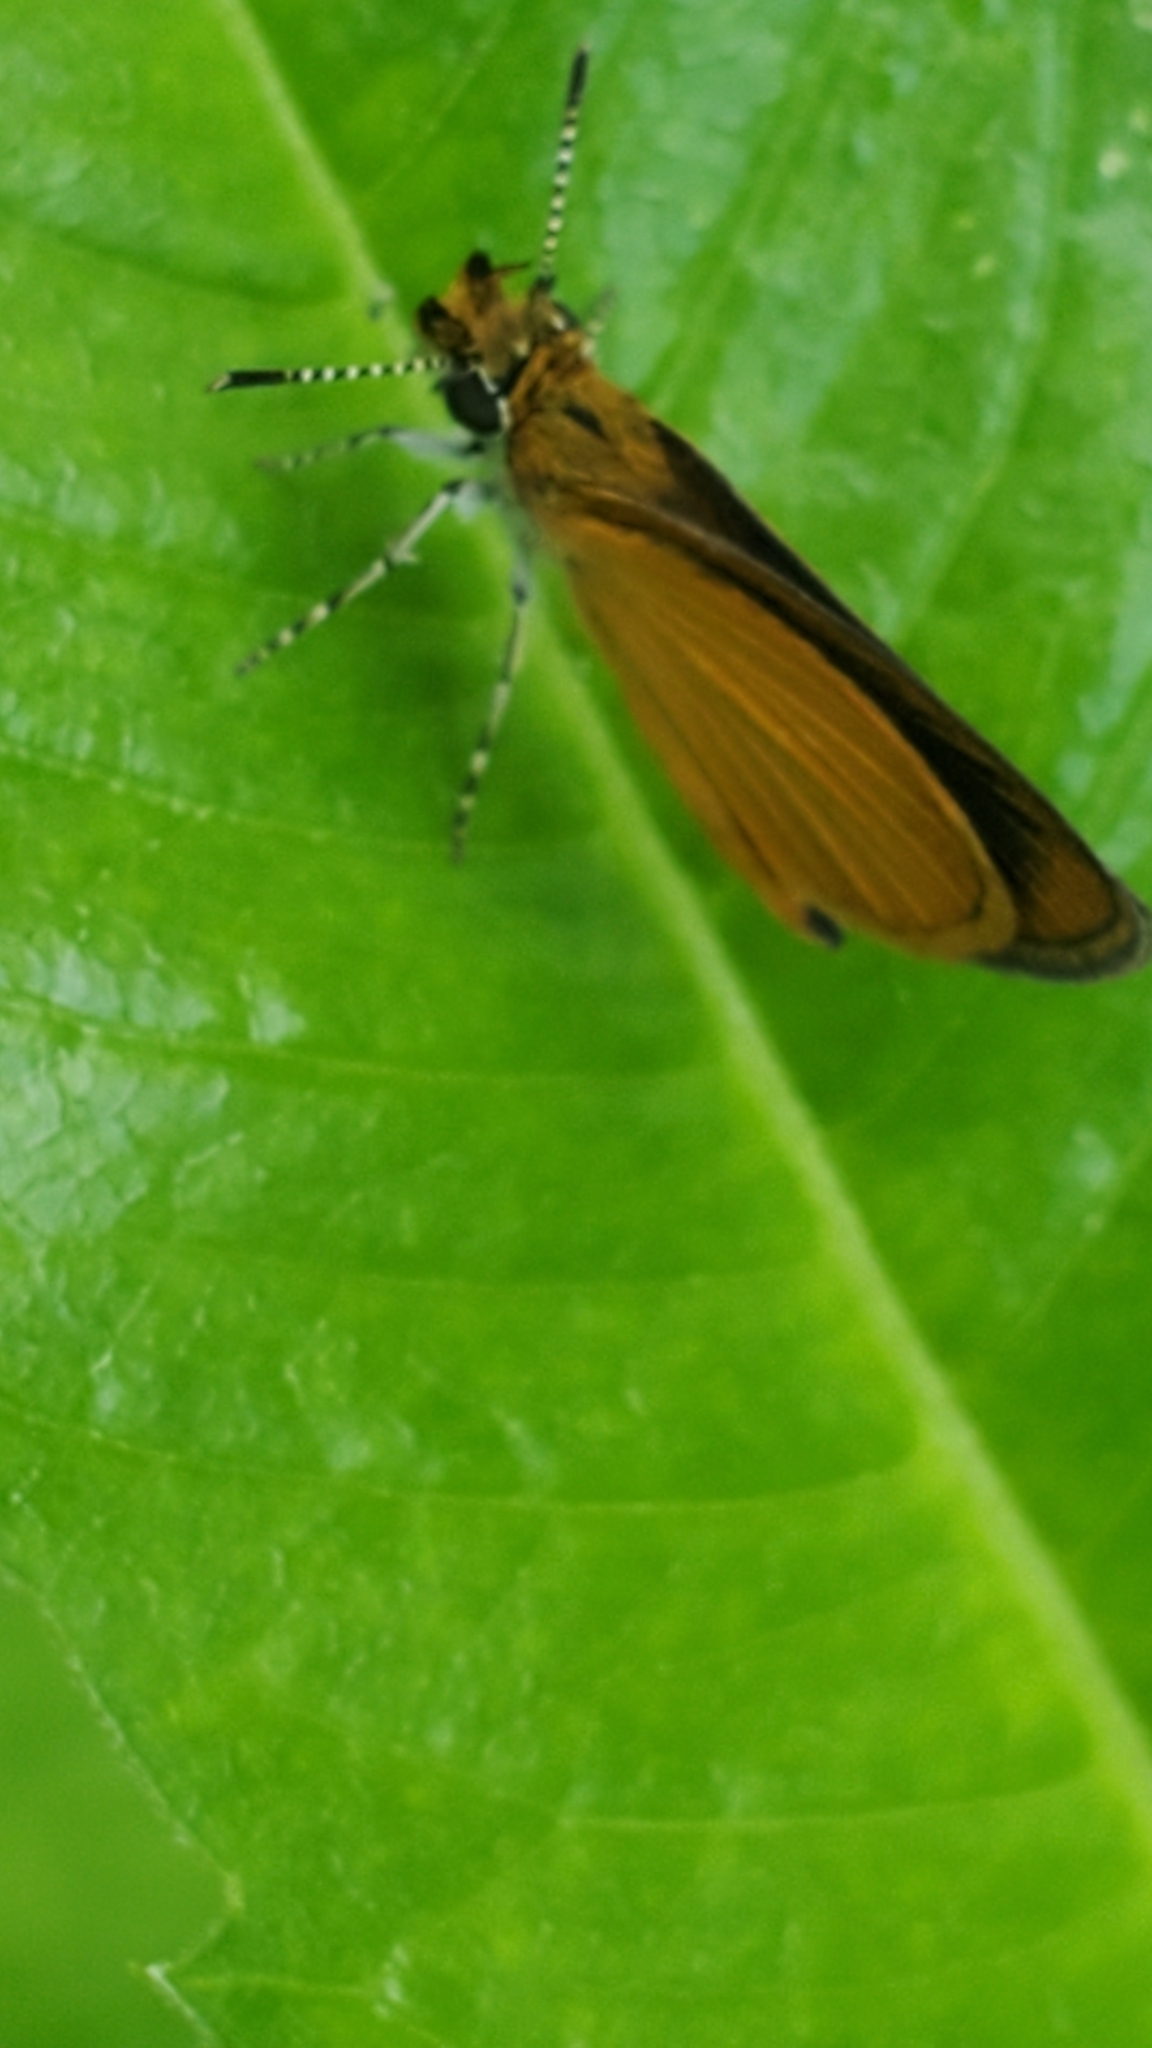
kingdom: Animalia
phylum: Arthropoda
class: Insecta
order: Lepidoptera
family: Hesperiidae
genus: Ancyloxypha
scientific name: Ancyloxypha numitor
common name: Least skipper
